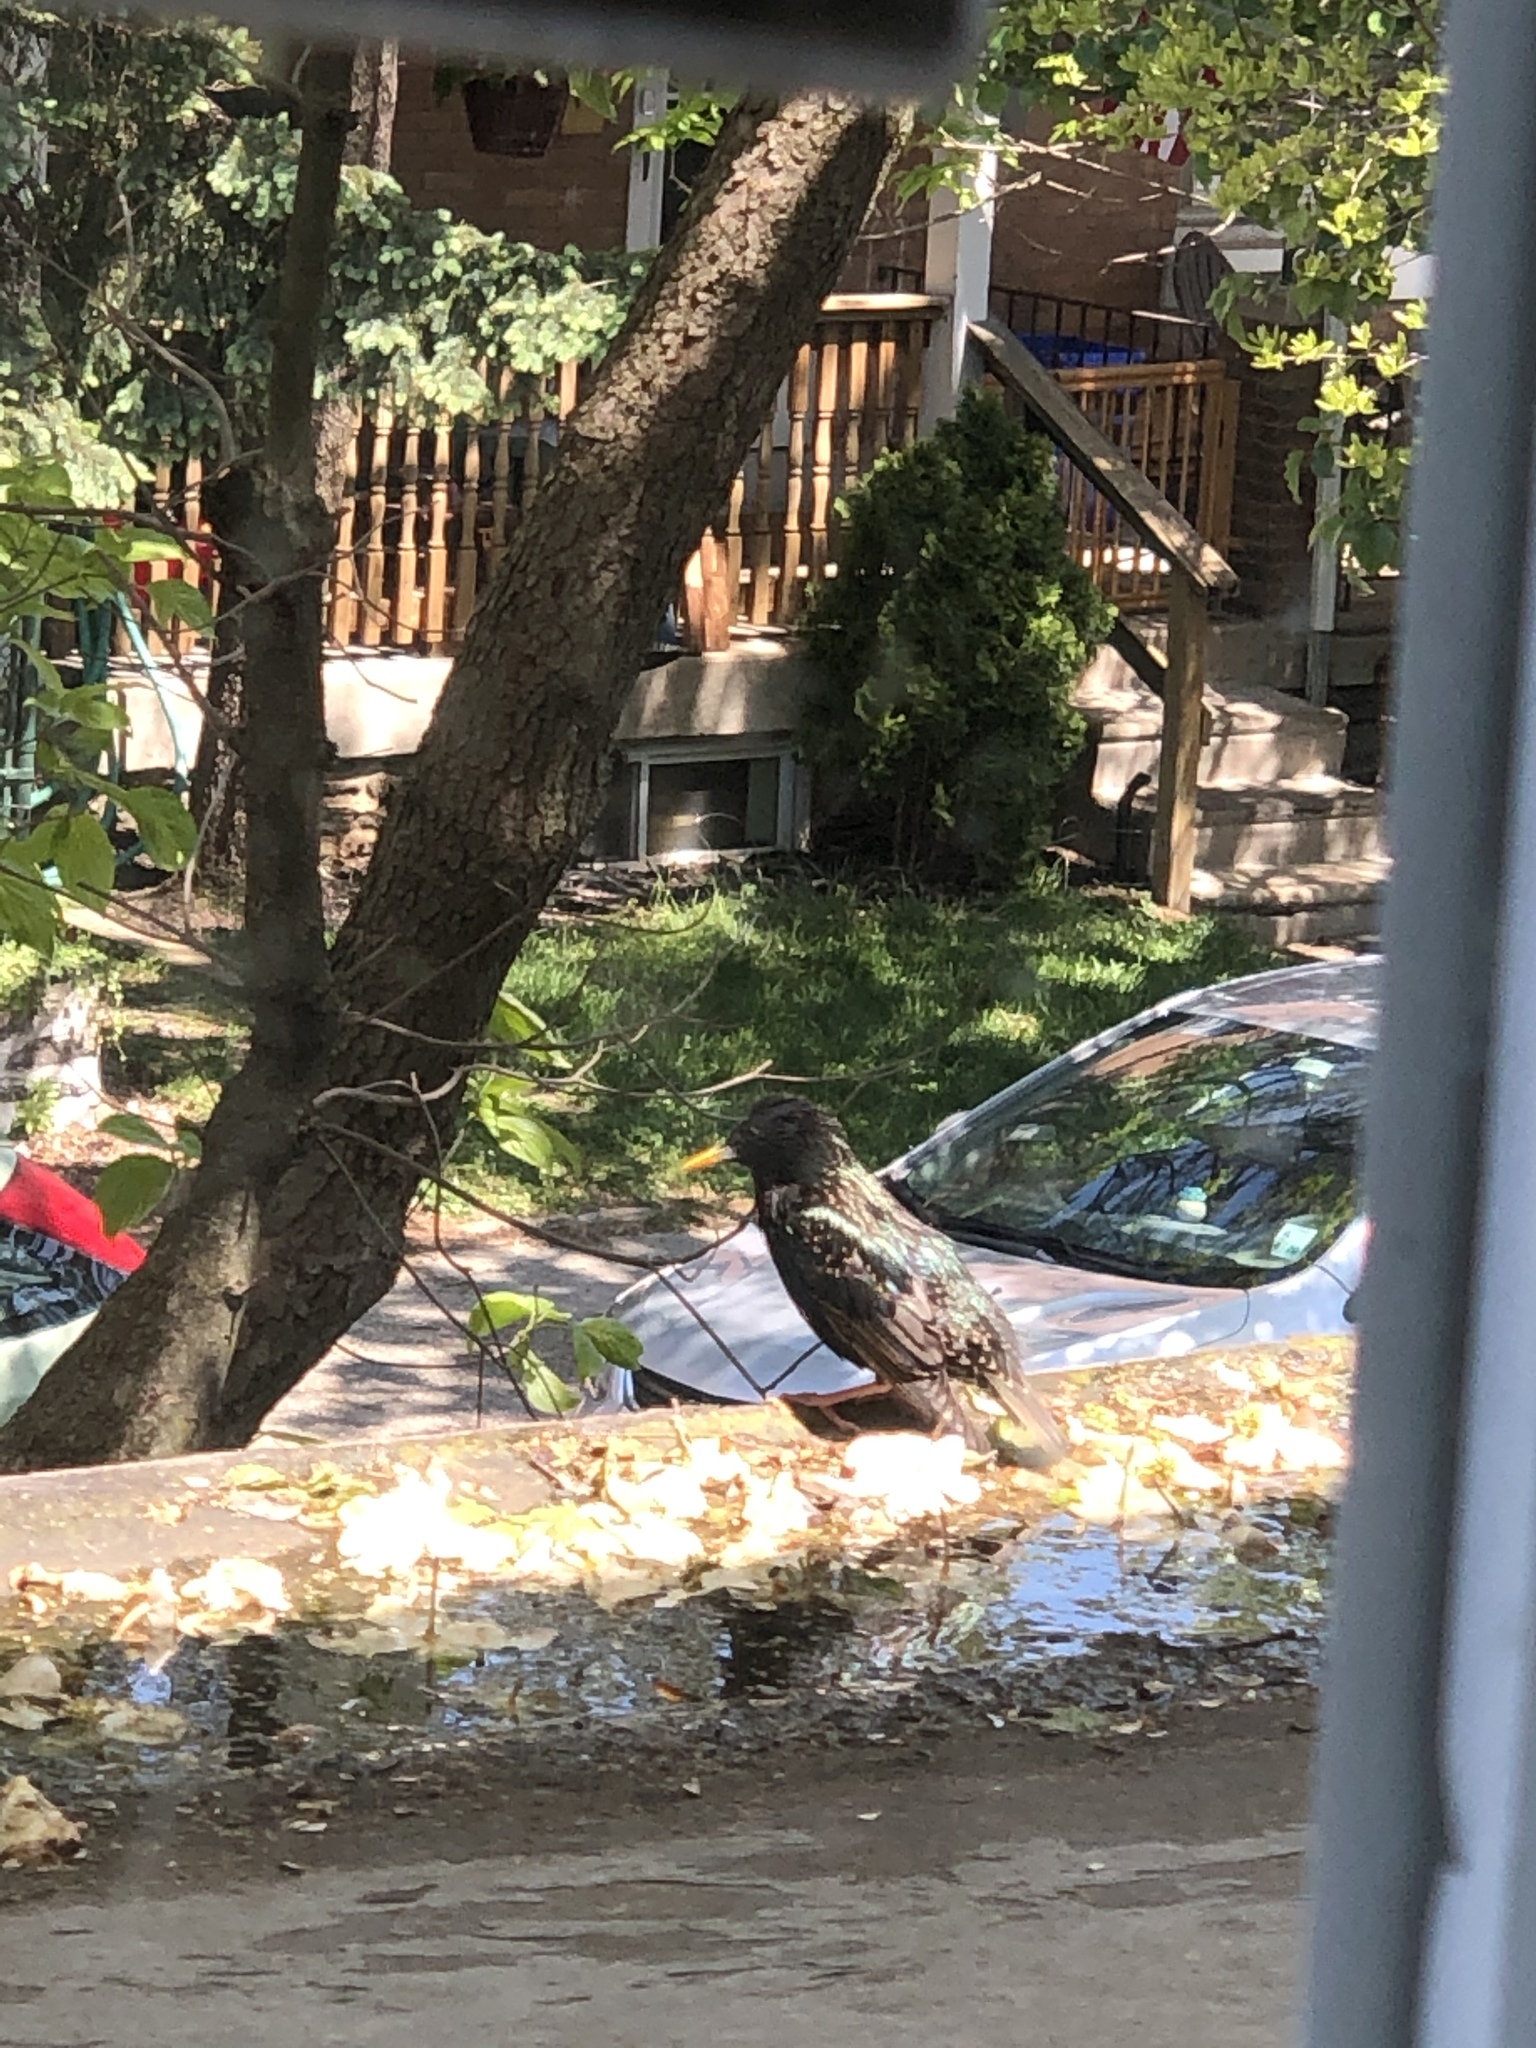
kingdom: Animalia
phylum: Chordata
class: Aves
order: Passeriformes
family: Sturnidae
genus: Sturnus
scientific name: Sturnus vulgaris
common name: Common starling
